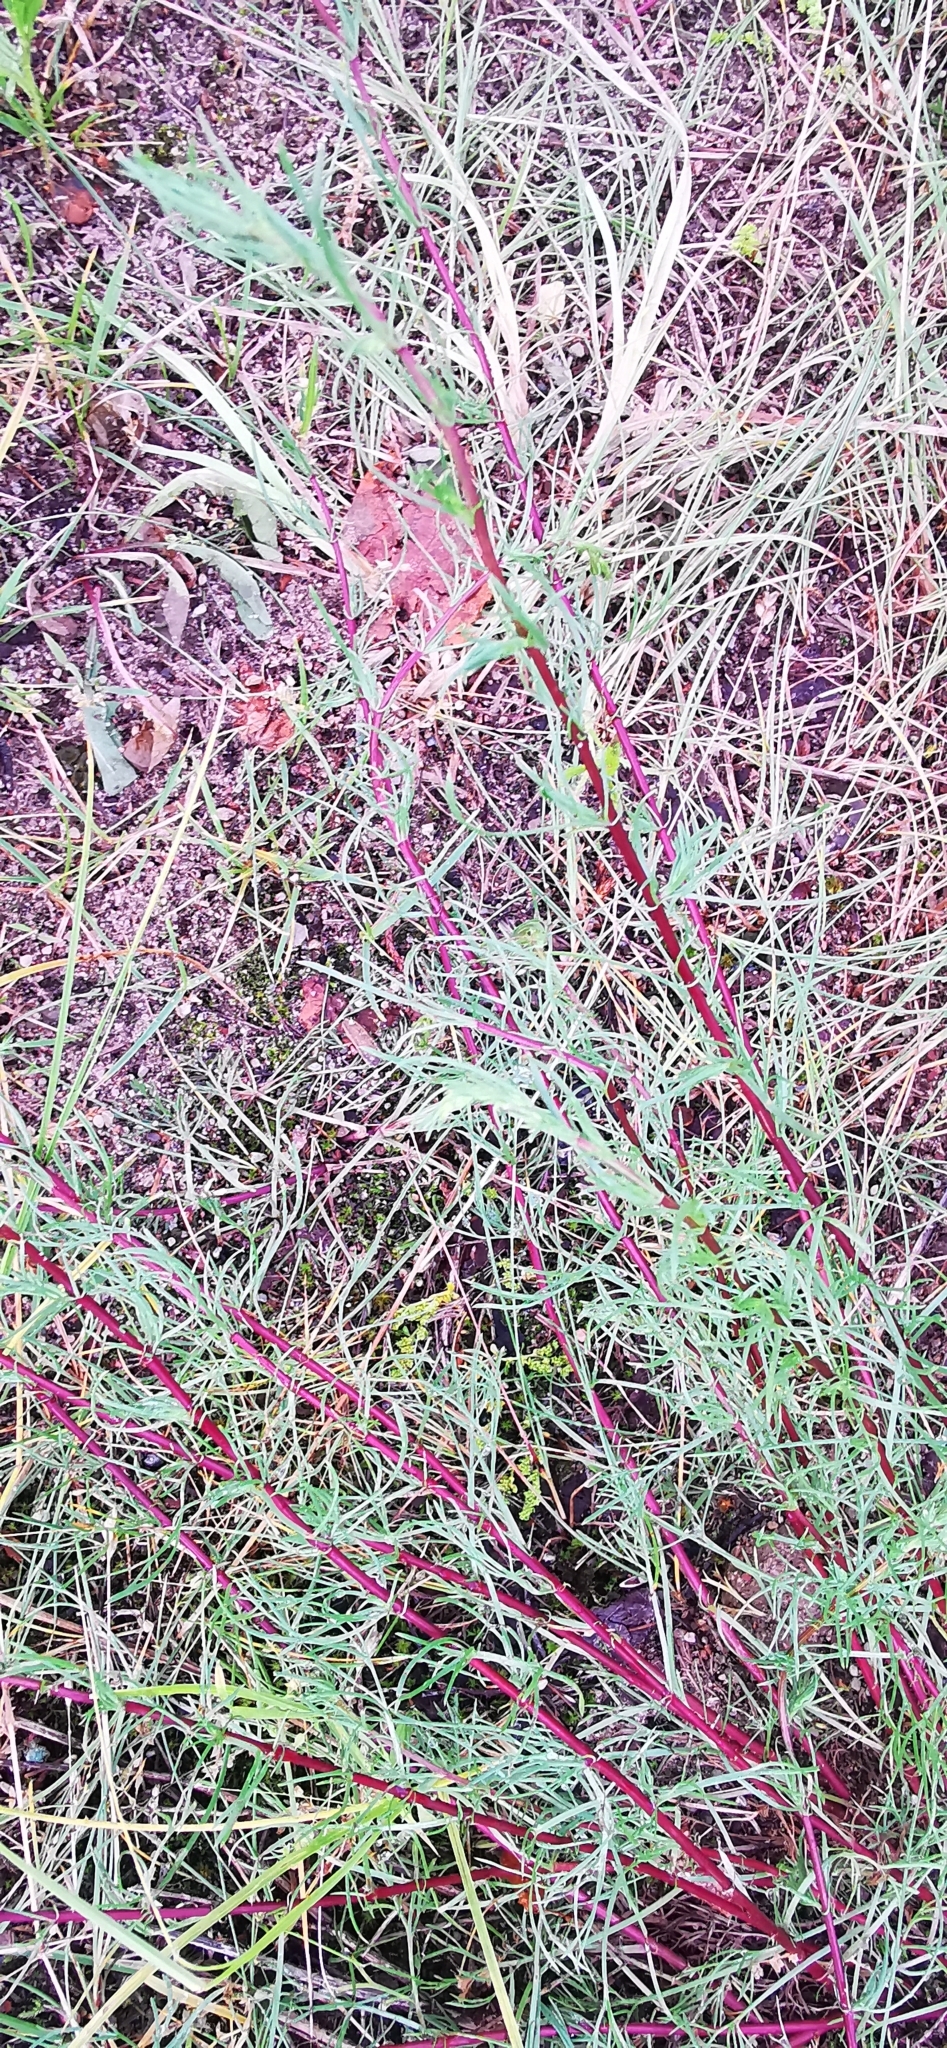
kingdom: Plantae
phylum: Tracheophyta
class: Magnoliopsida
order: Asterales
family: Asteraceae
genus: Artemisia
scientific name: Artemisia campestris
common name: Field wormwood
